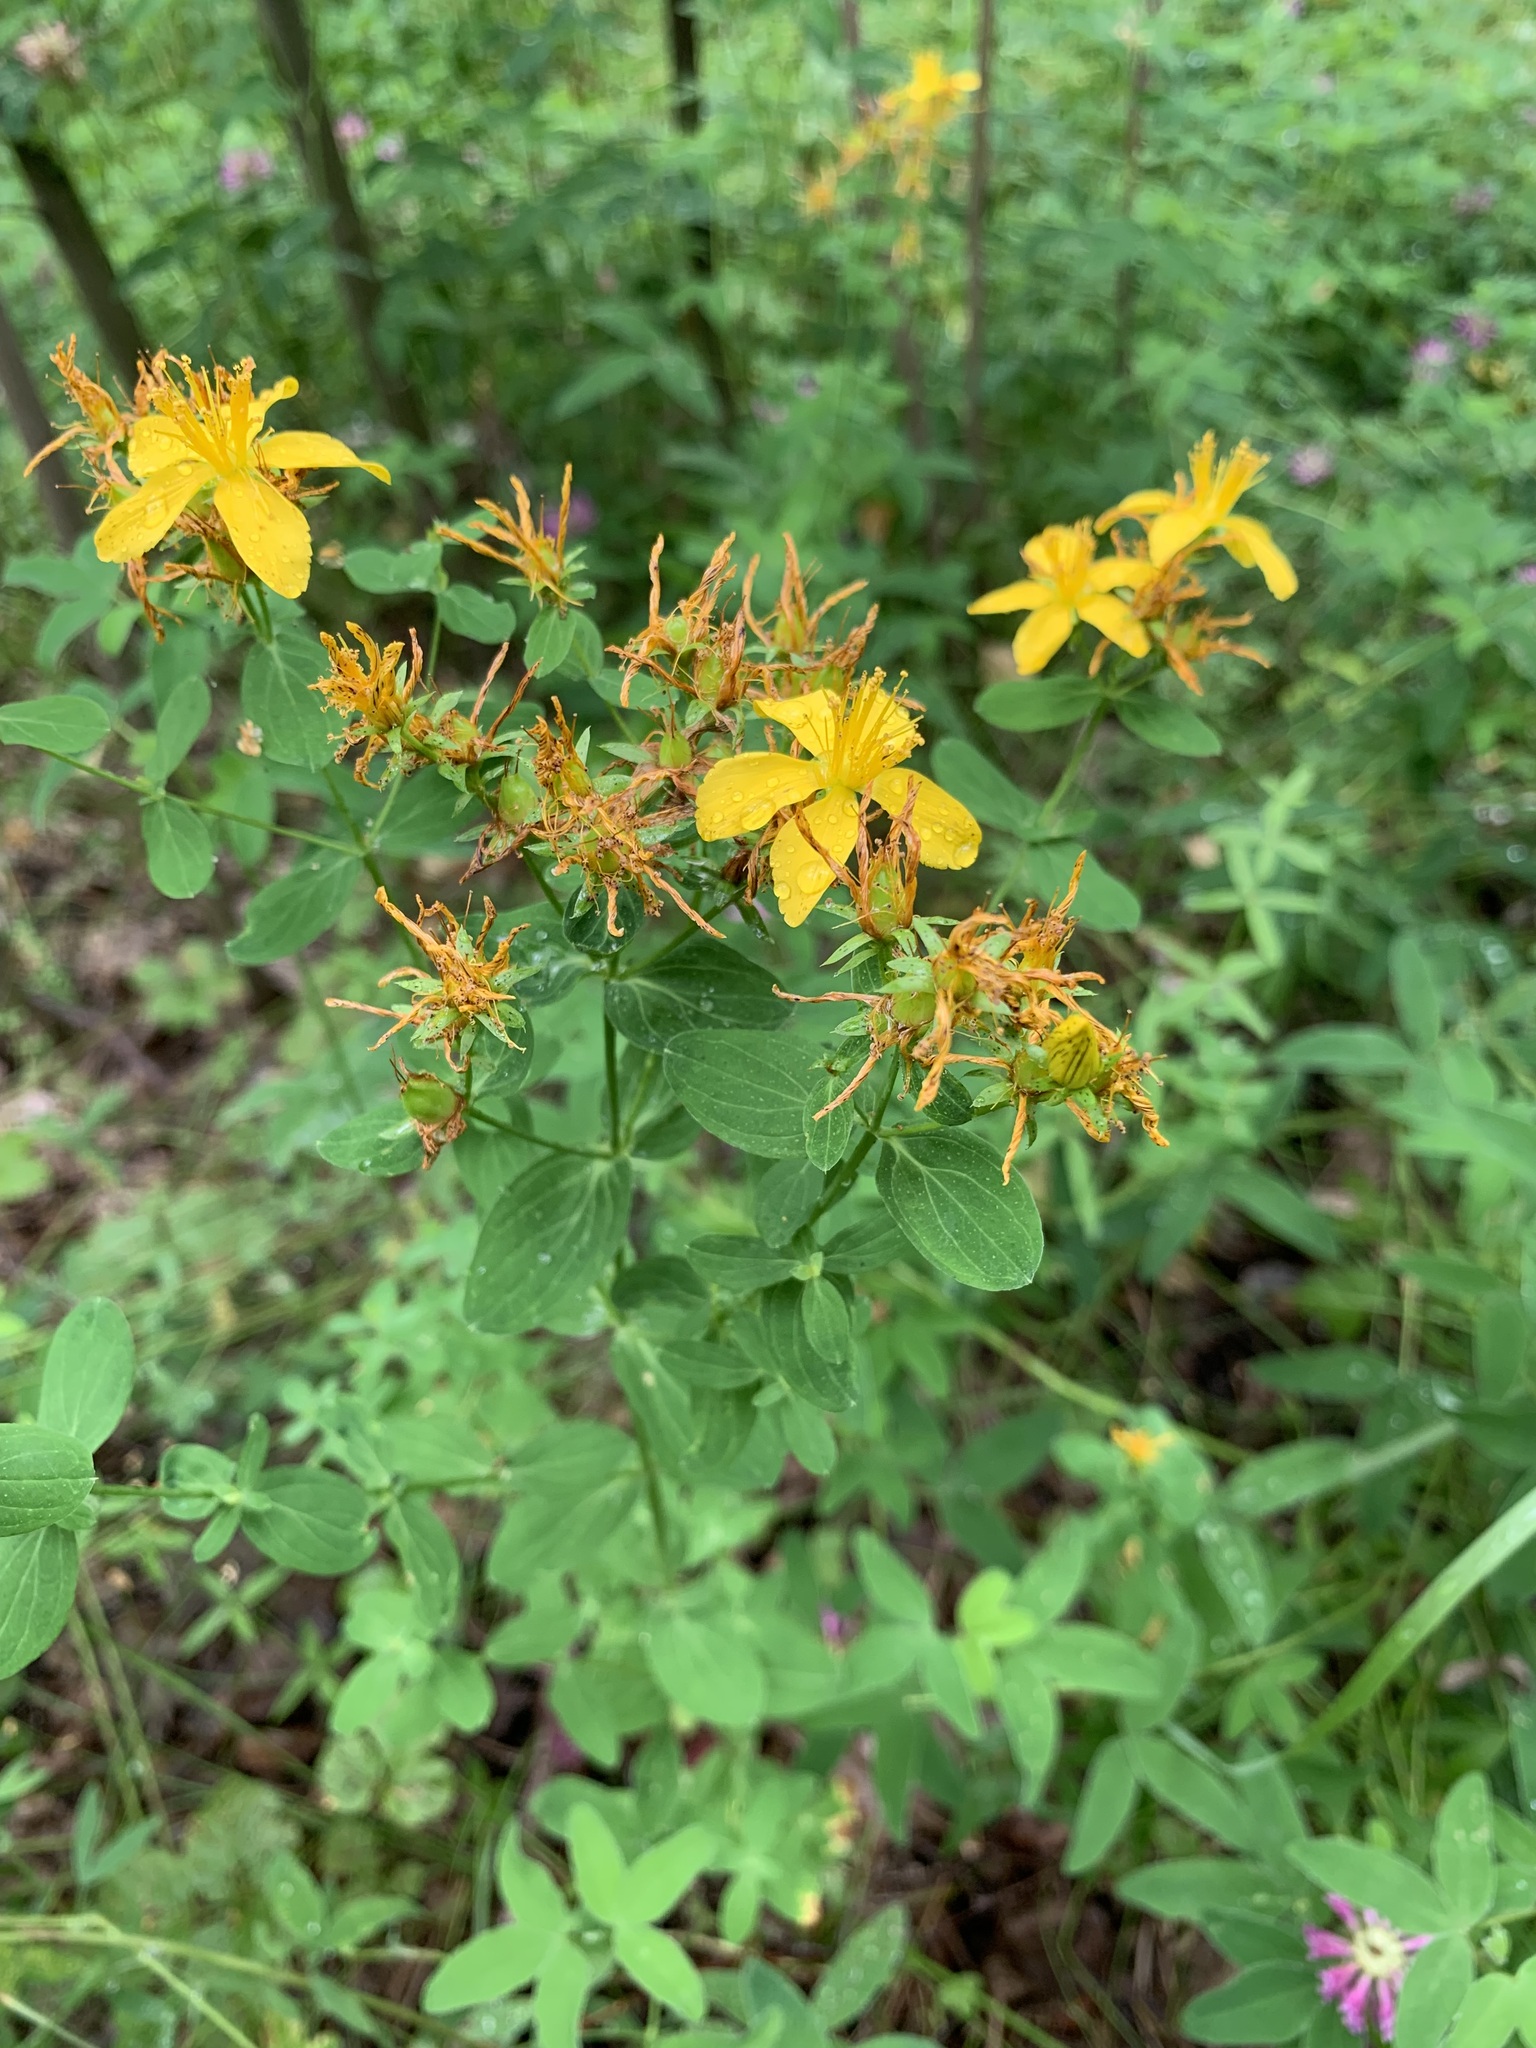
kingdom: Plantae
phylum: Tracheophyta
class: Magnoliopsida
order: Malpighiales
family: Hypericaceae
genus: Hypericum
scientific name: Hypericum perforatum
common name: Common st. johnswort
